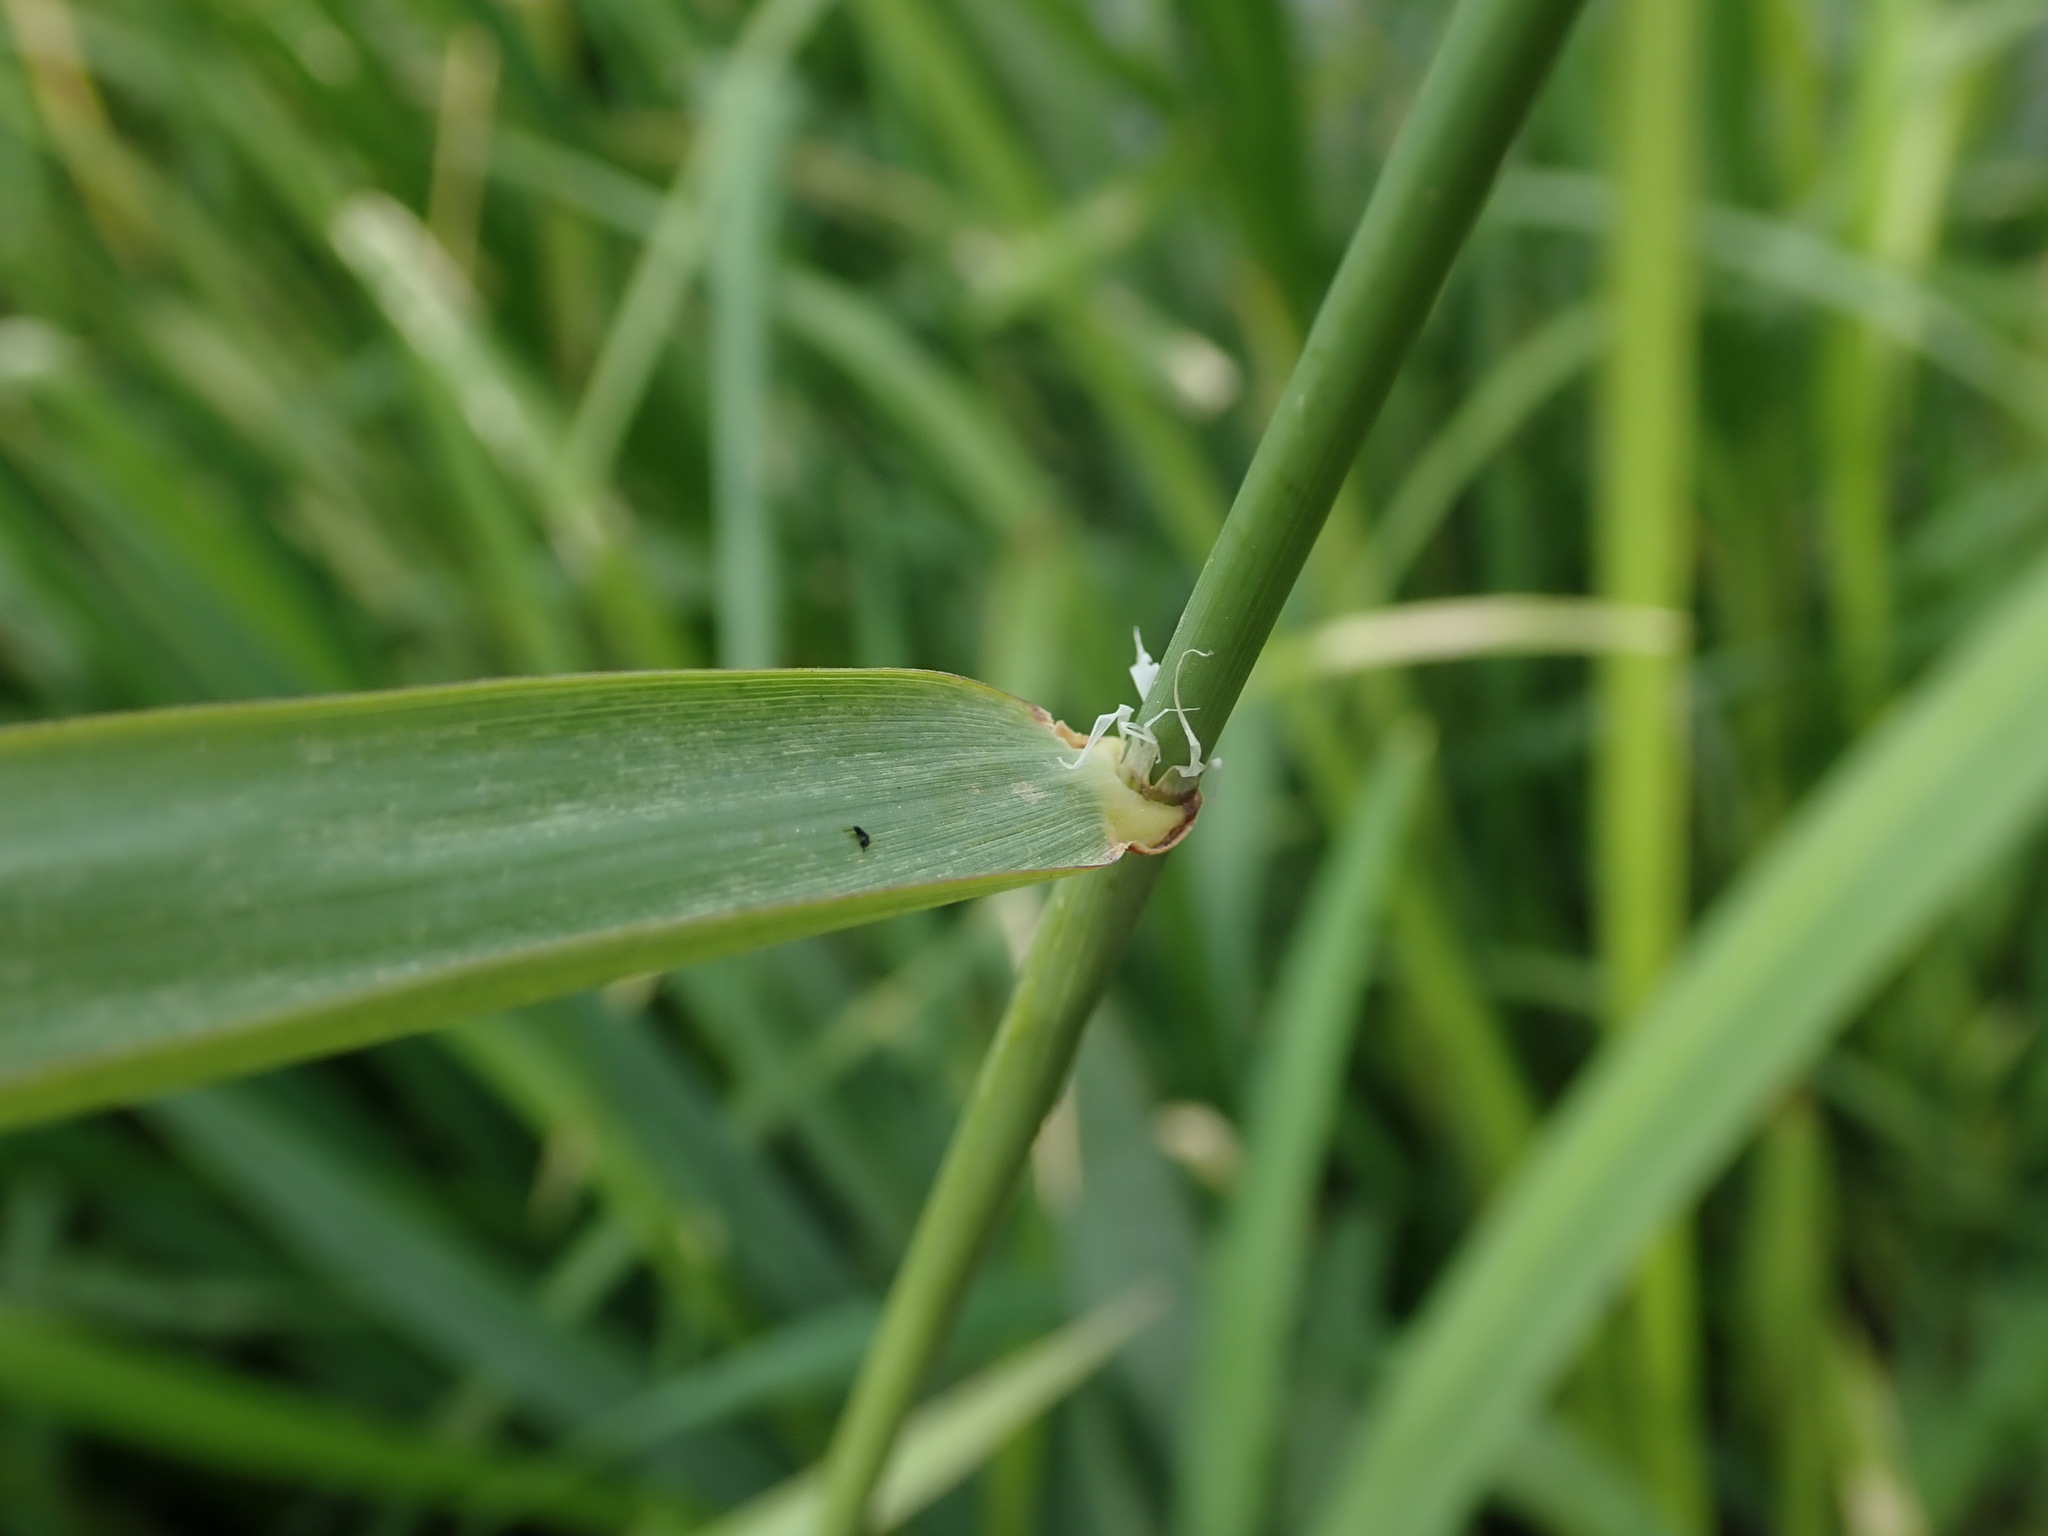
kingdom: Plantae
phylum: Tracheophyta
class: Liliopsida
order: Poales
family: Poaceae
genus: Phalaris
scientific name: Phalaris arundinacea
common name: Reed canary-grass
